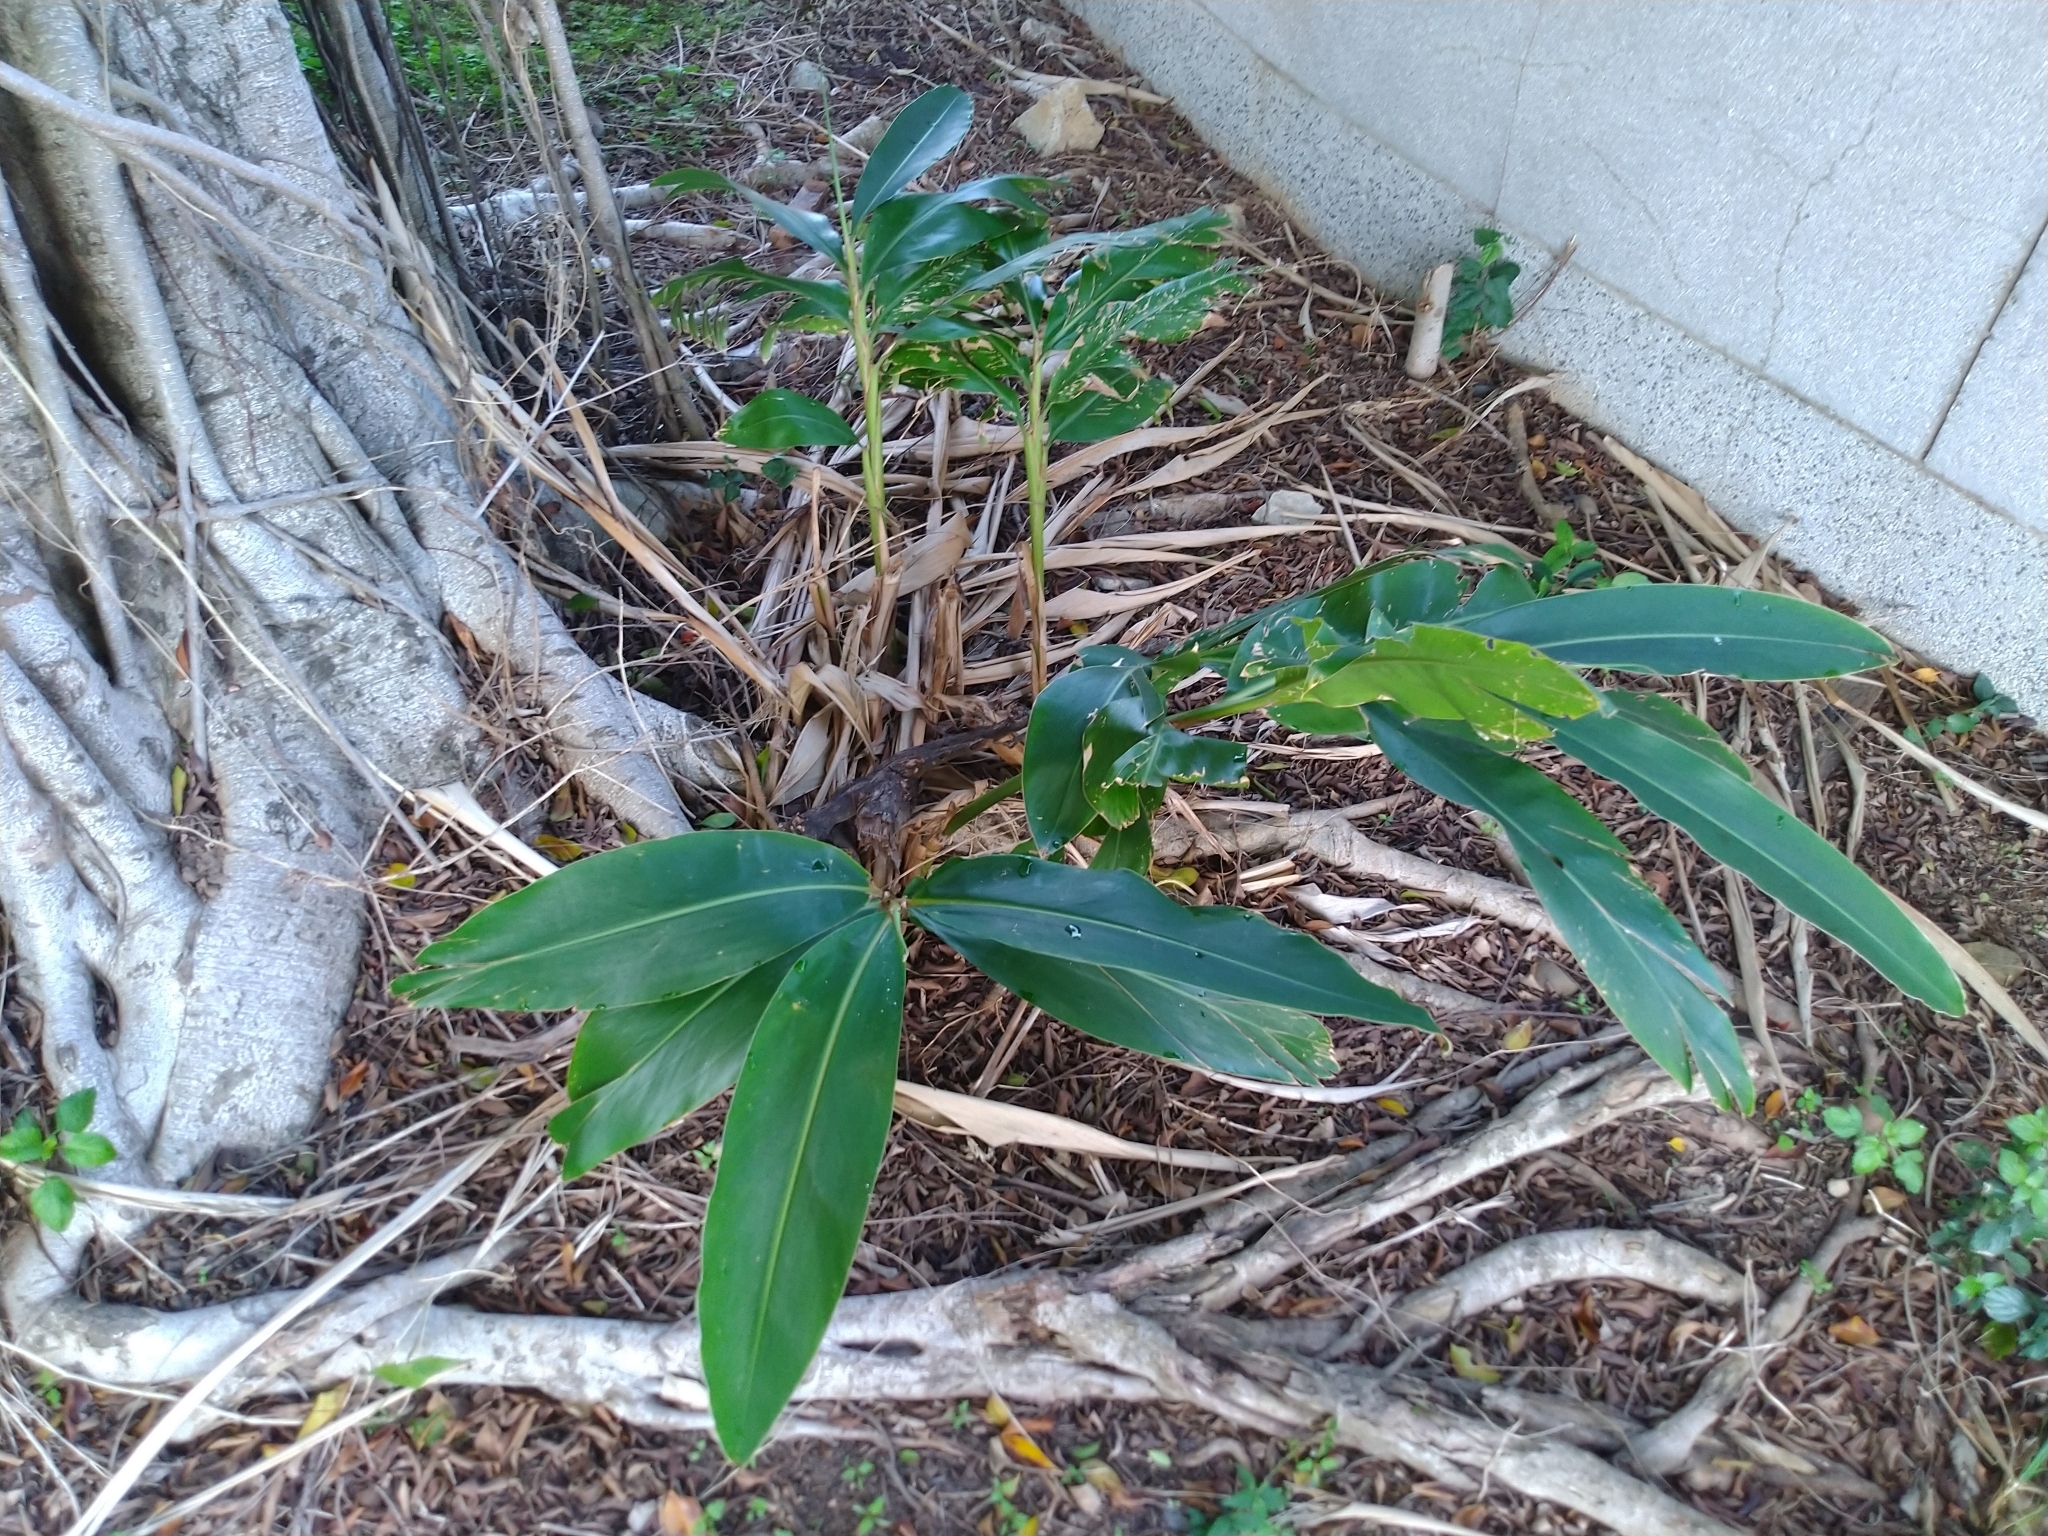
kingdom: Plantae
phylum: Tracheophyta
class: Liliopsida
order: Zingiberales
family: Zingiberaceae
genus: Alpinia
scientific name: Alpinia zerumbet
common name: Shellplant
